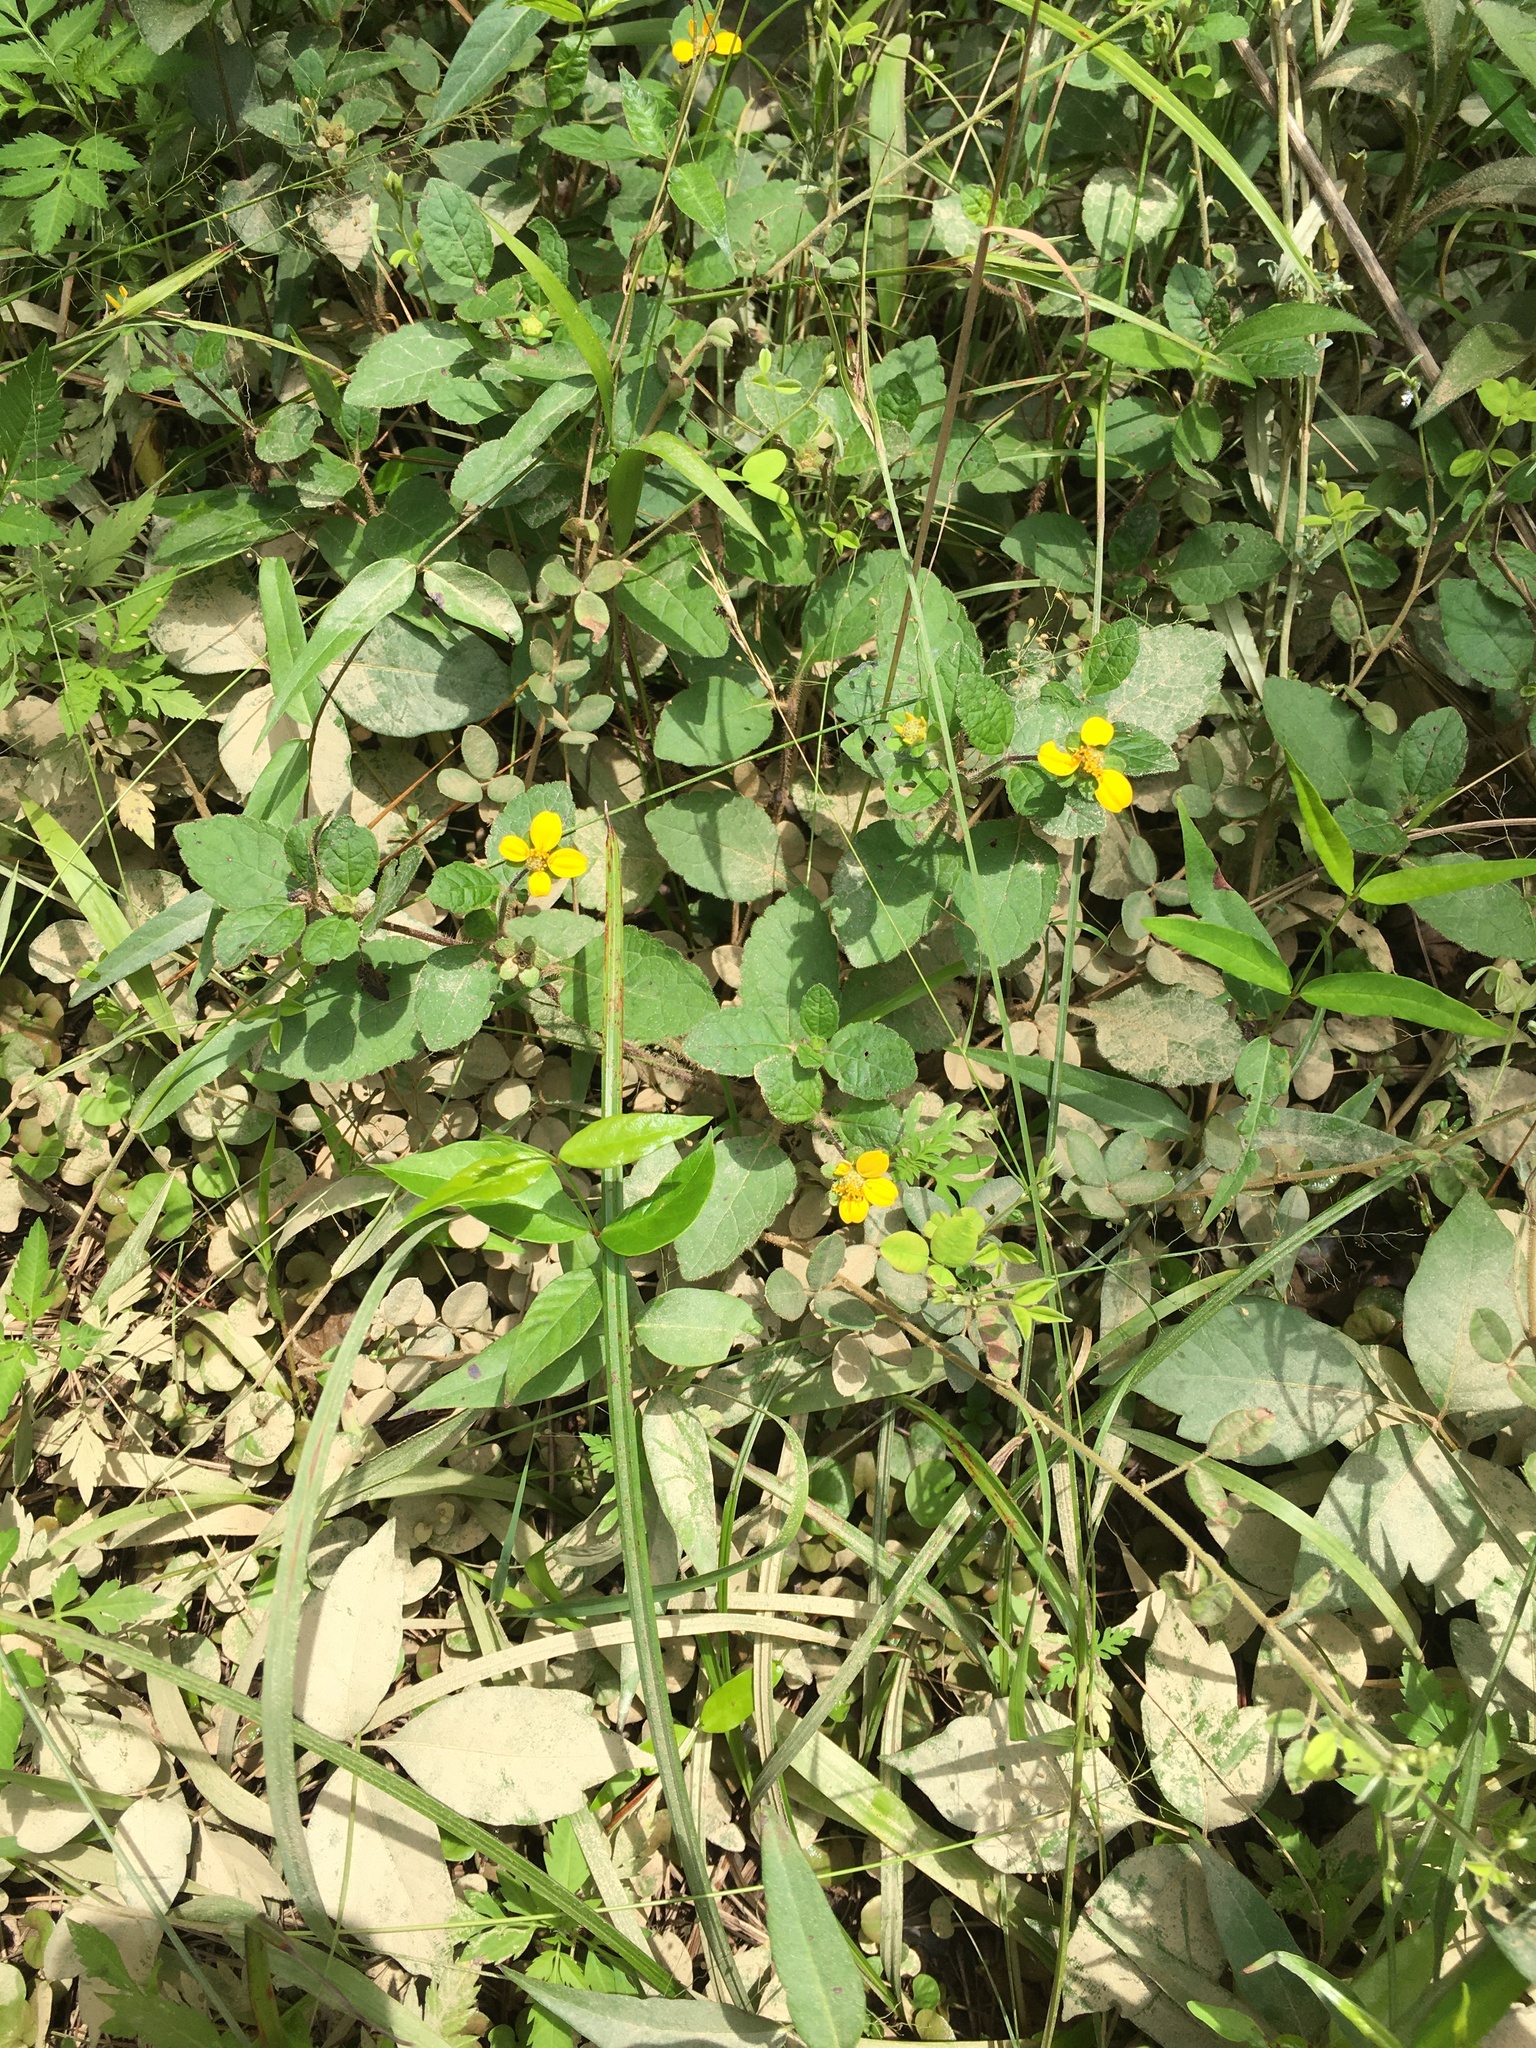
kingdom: Plantae
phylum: Tracheophyta
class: Magnoliopsida
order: Asterales
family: Asteraceae
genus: Chrysogonum
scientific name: Chrysogonum virginianum
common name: Golden-knee
